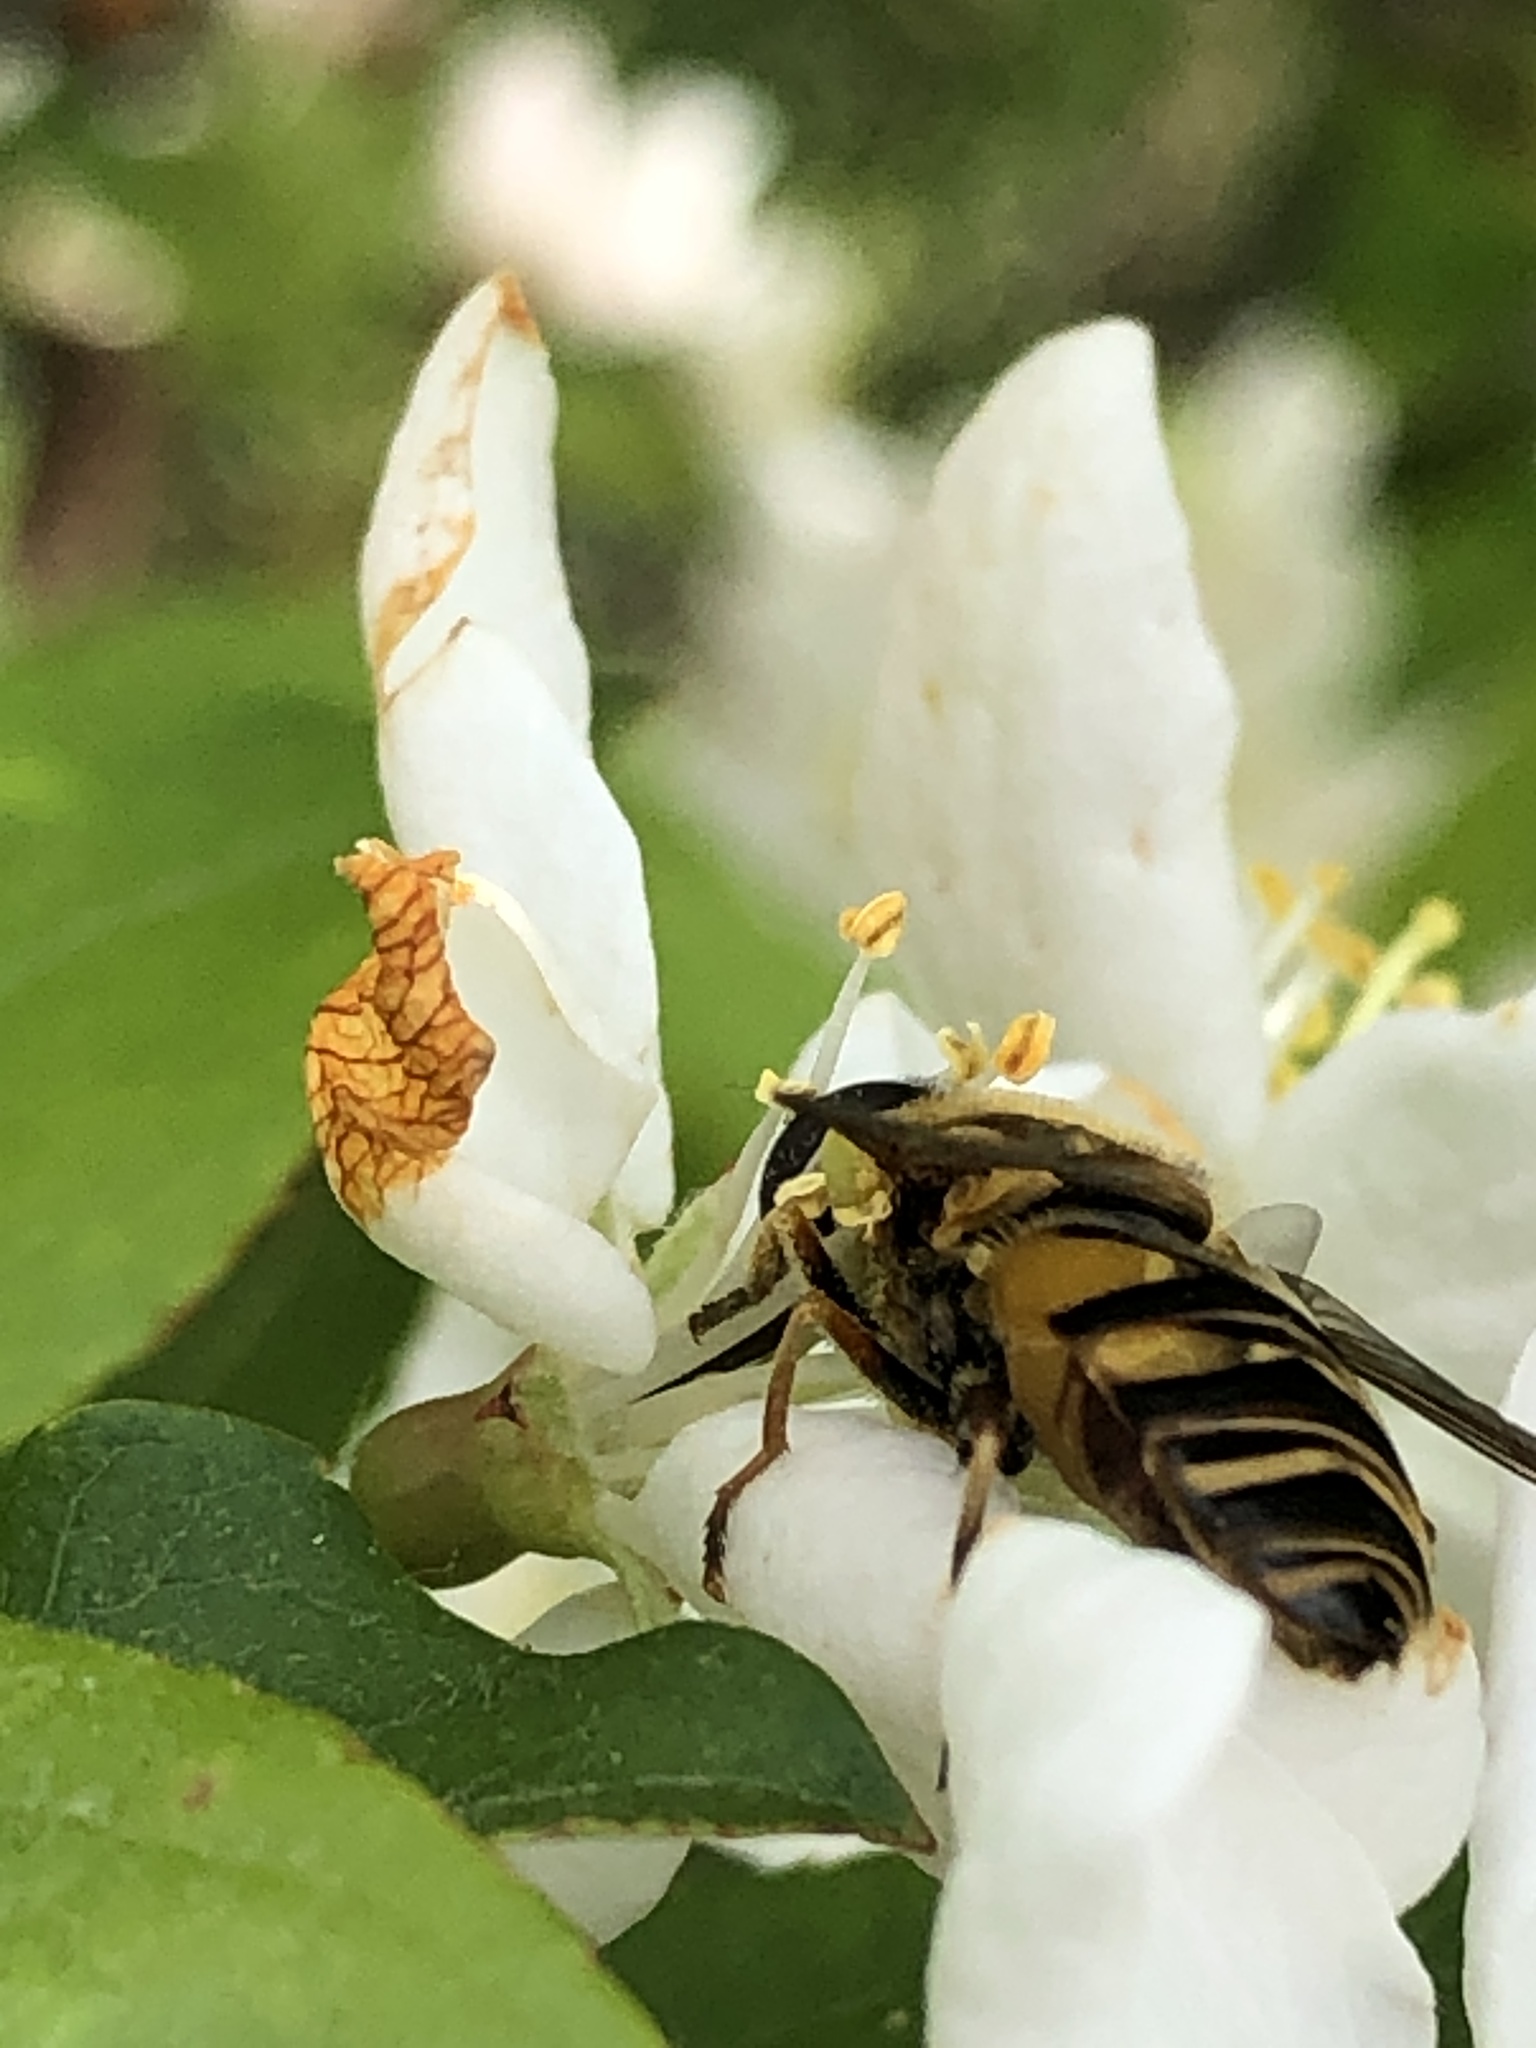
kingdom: Animalia
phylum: Arthropoda
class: Insecta
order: Diptera
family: Syrphidae
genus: Helophilus
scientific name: Helophilus fasciatus
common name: Narrow-headed marsh fly
